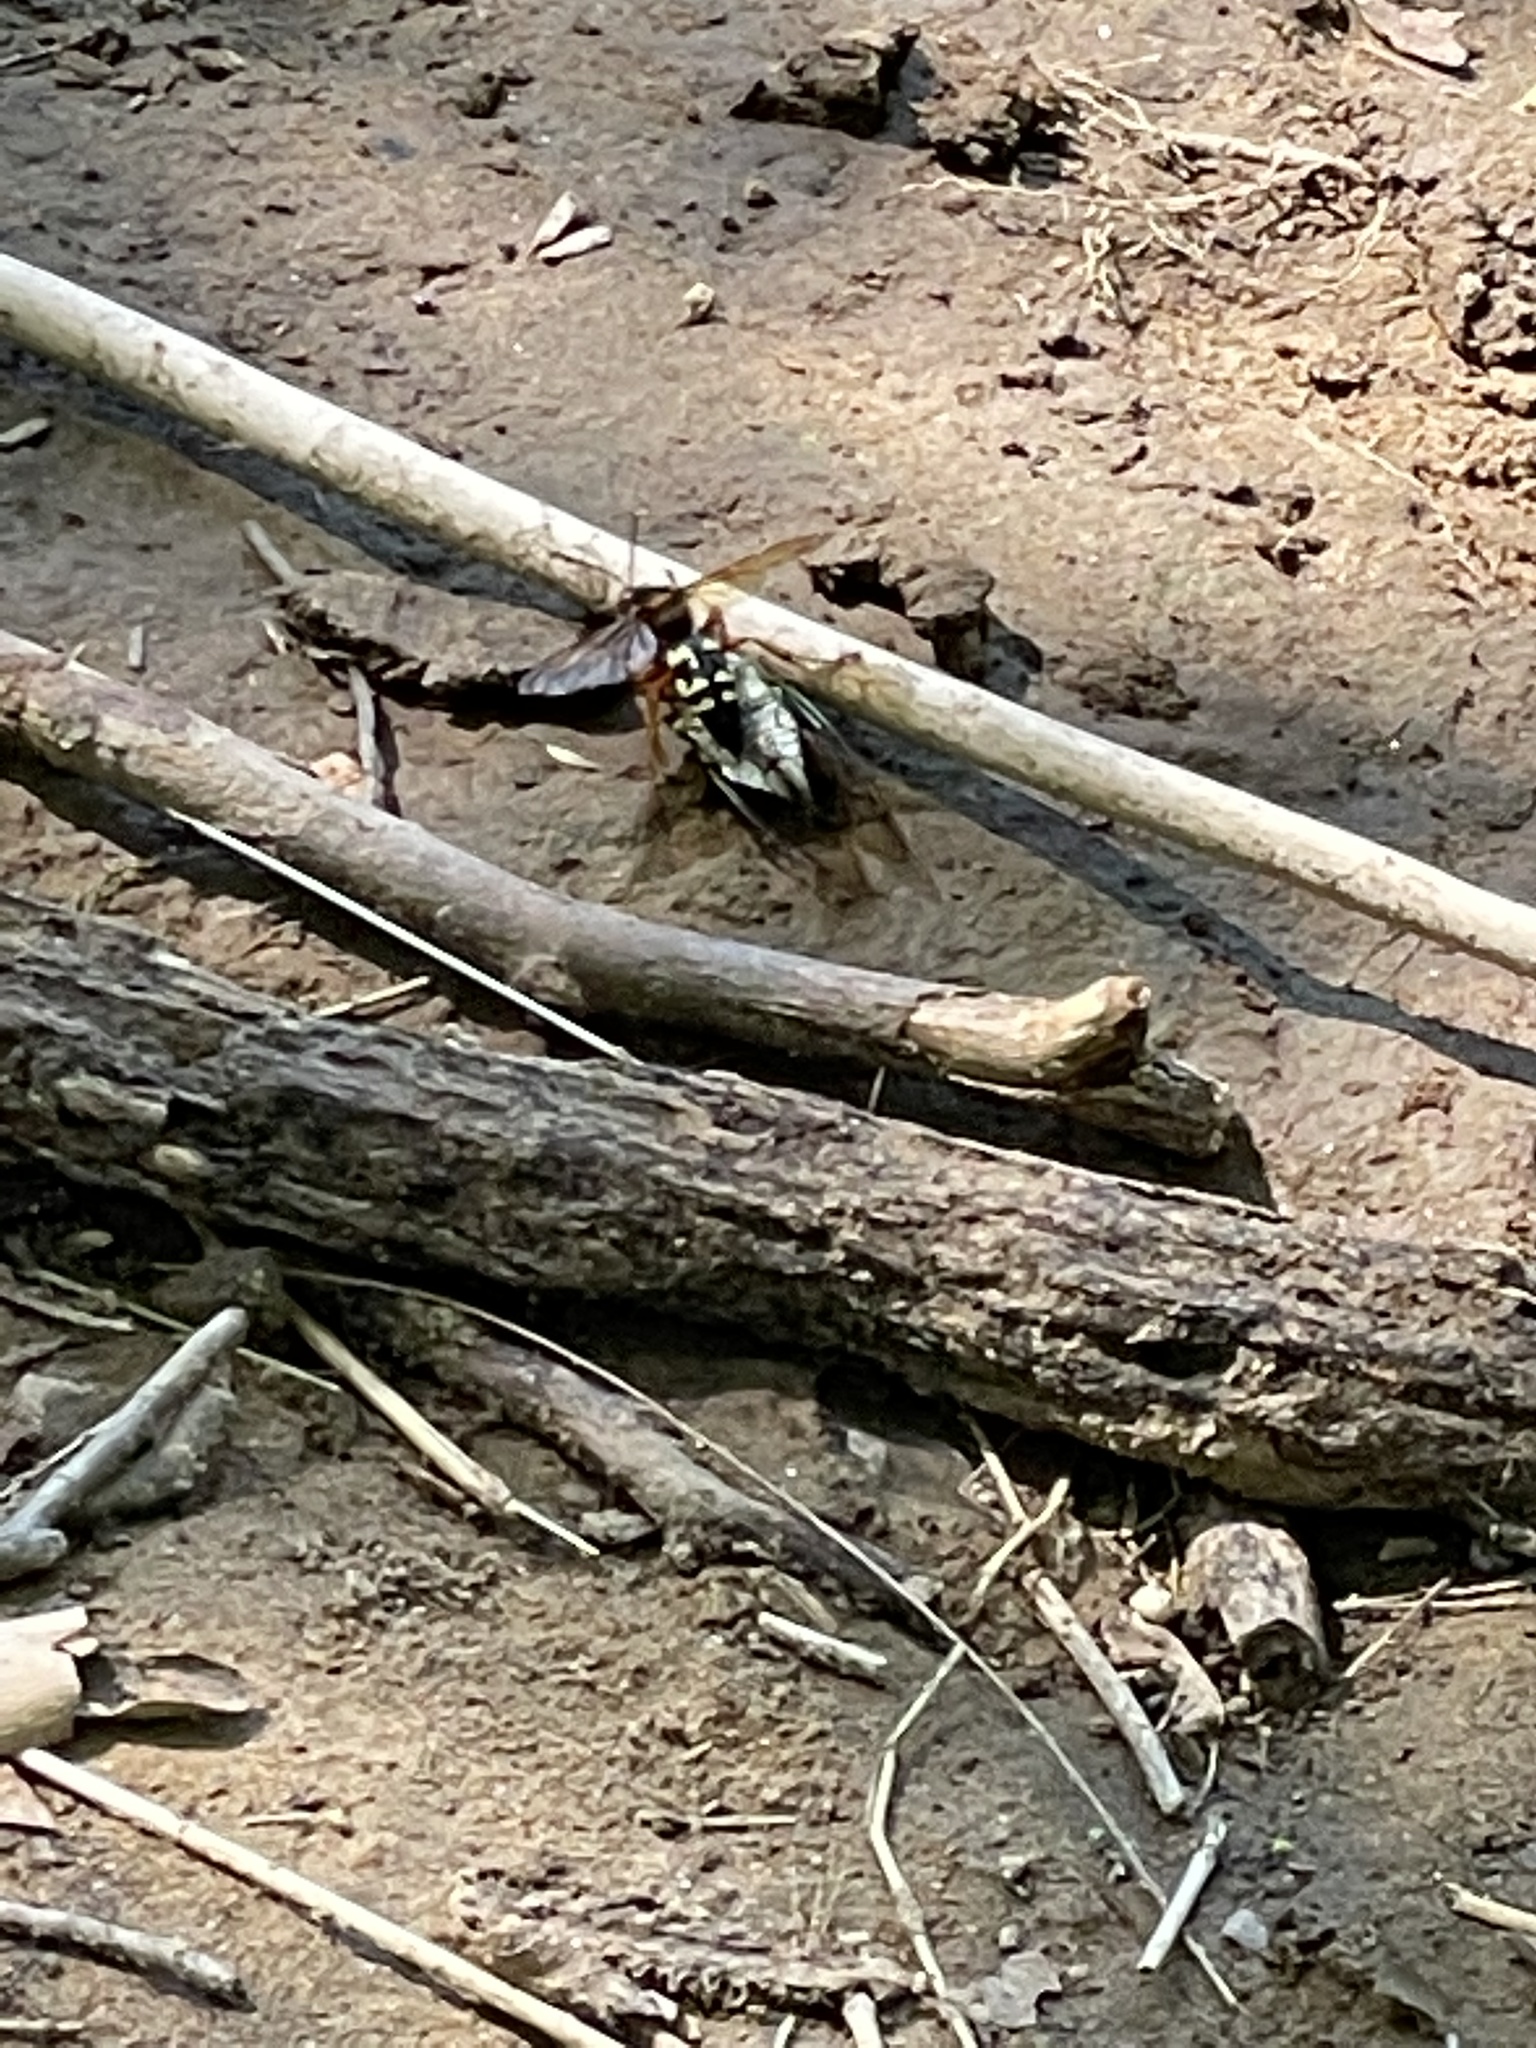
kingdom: Animalia
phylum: Arthropoda
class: Insecta
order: Hymenoptera
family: Crabronidae
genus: Sphecius
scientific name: Sphecius speciosus
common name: Cicada killer
